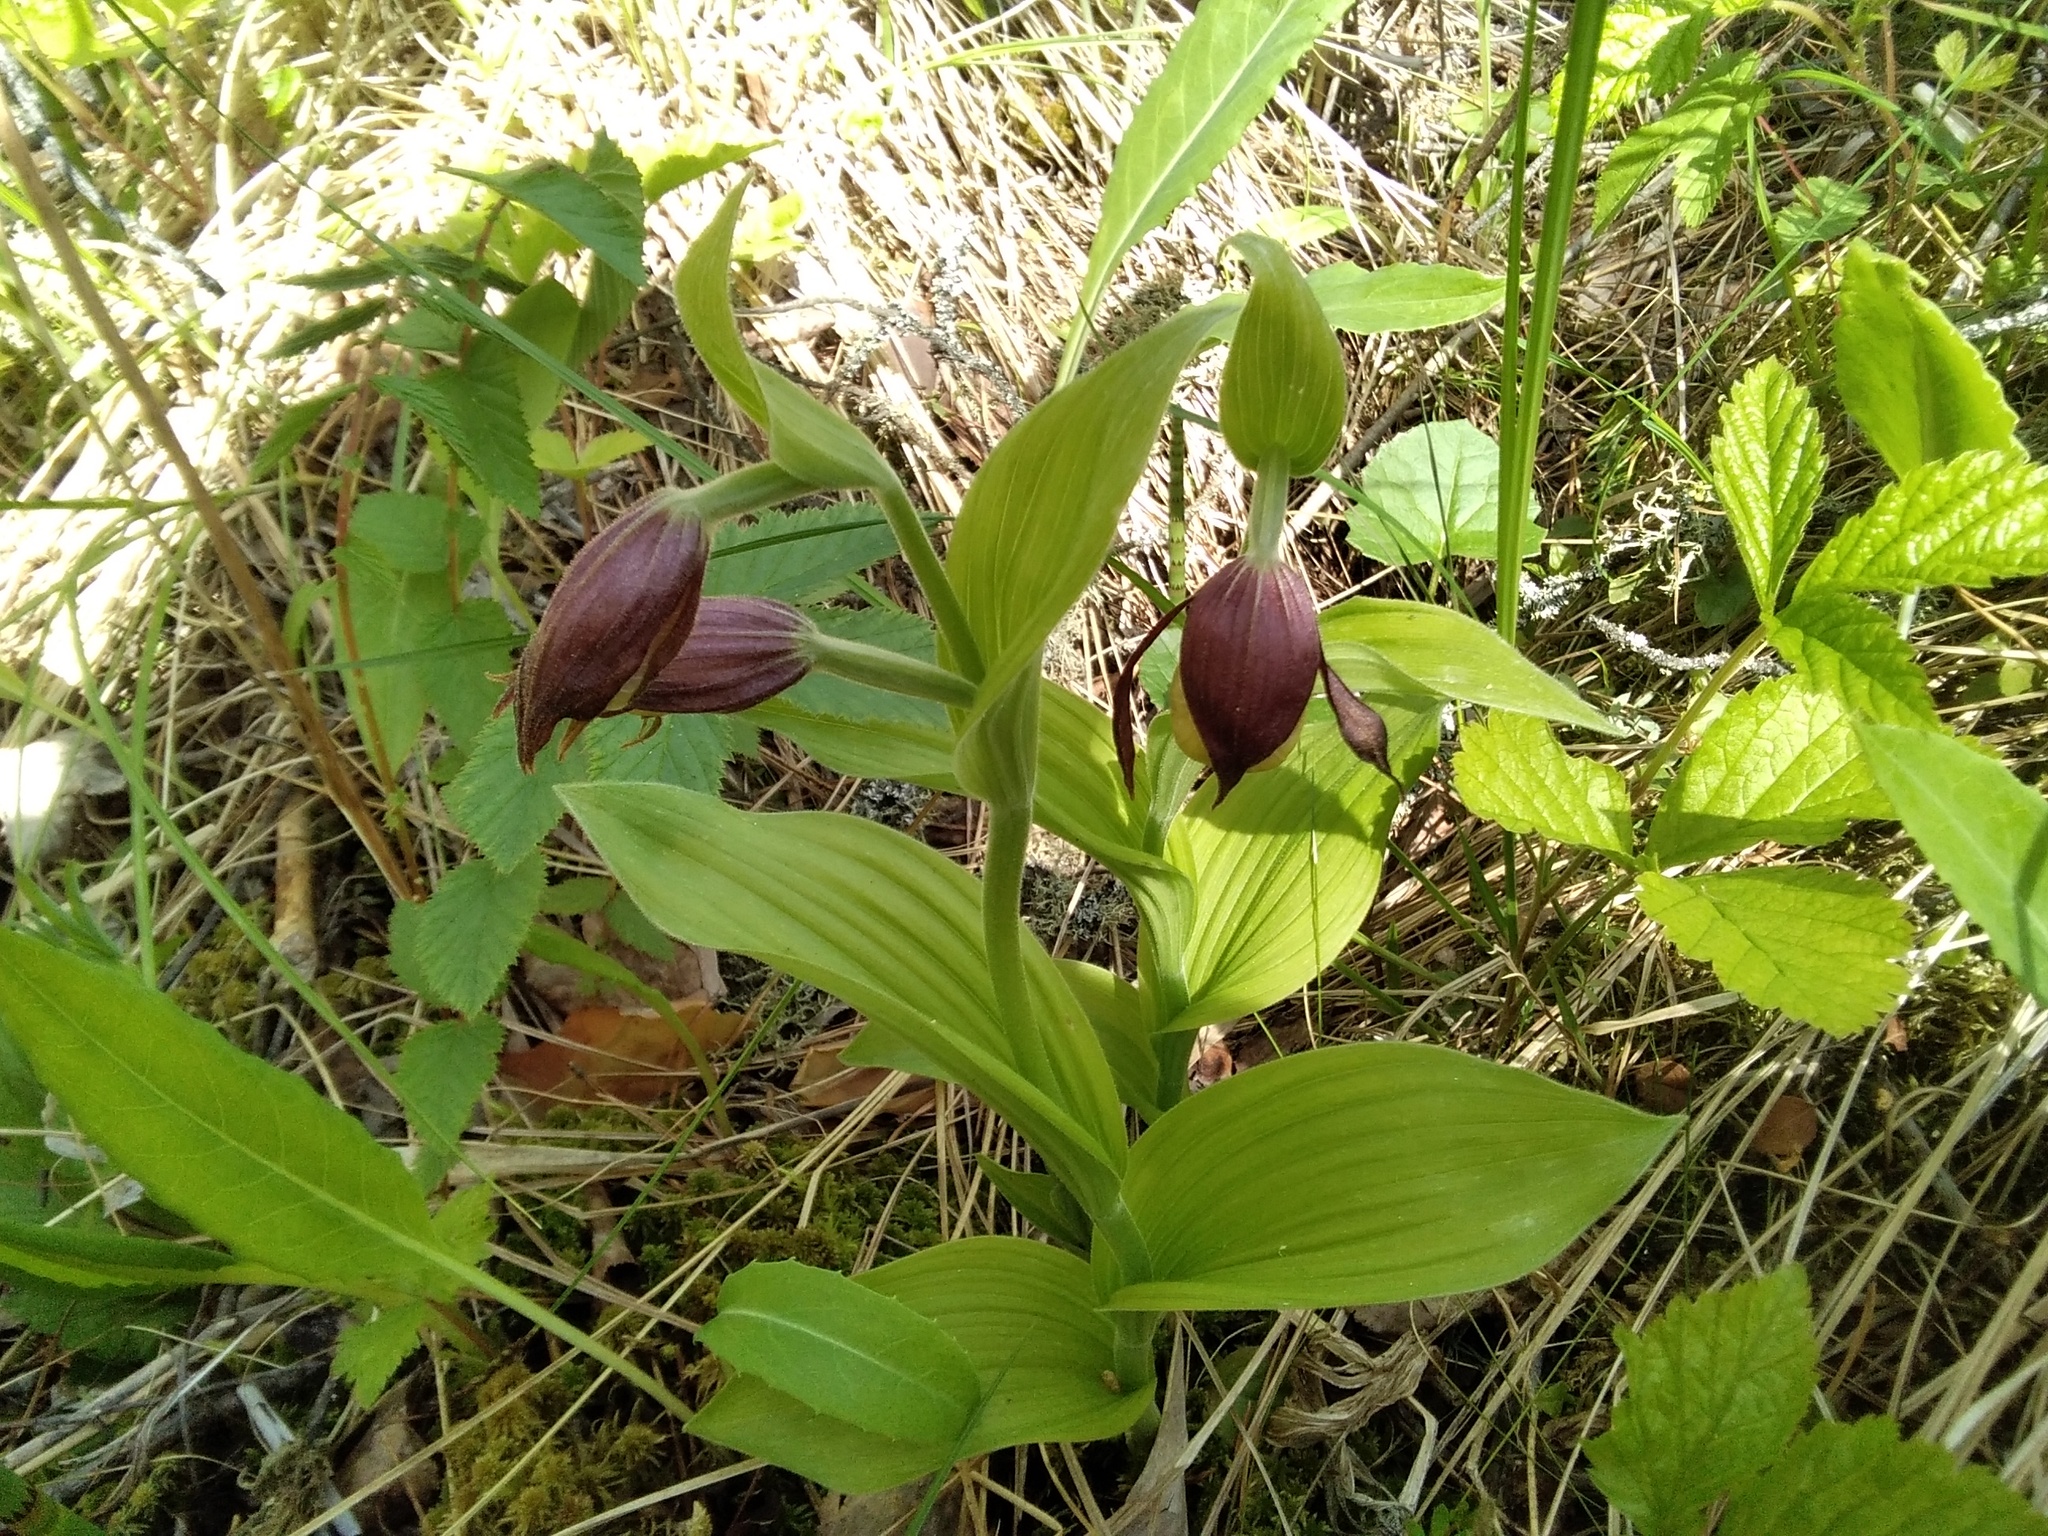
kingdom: Plantae
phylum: Tracheophyta
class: Liliopsida
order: Asparagales
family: Orchidaceae
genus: Cypripedium
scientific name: Cypripedium calceolus
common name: Lady's-slipper
